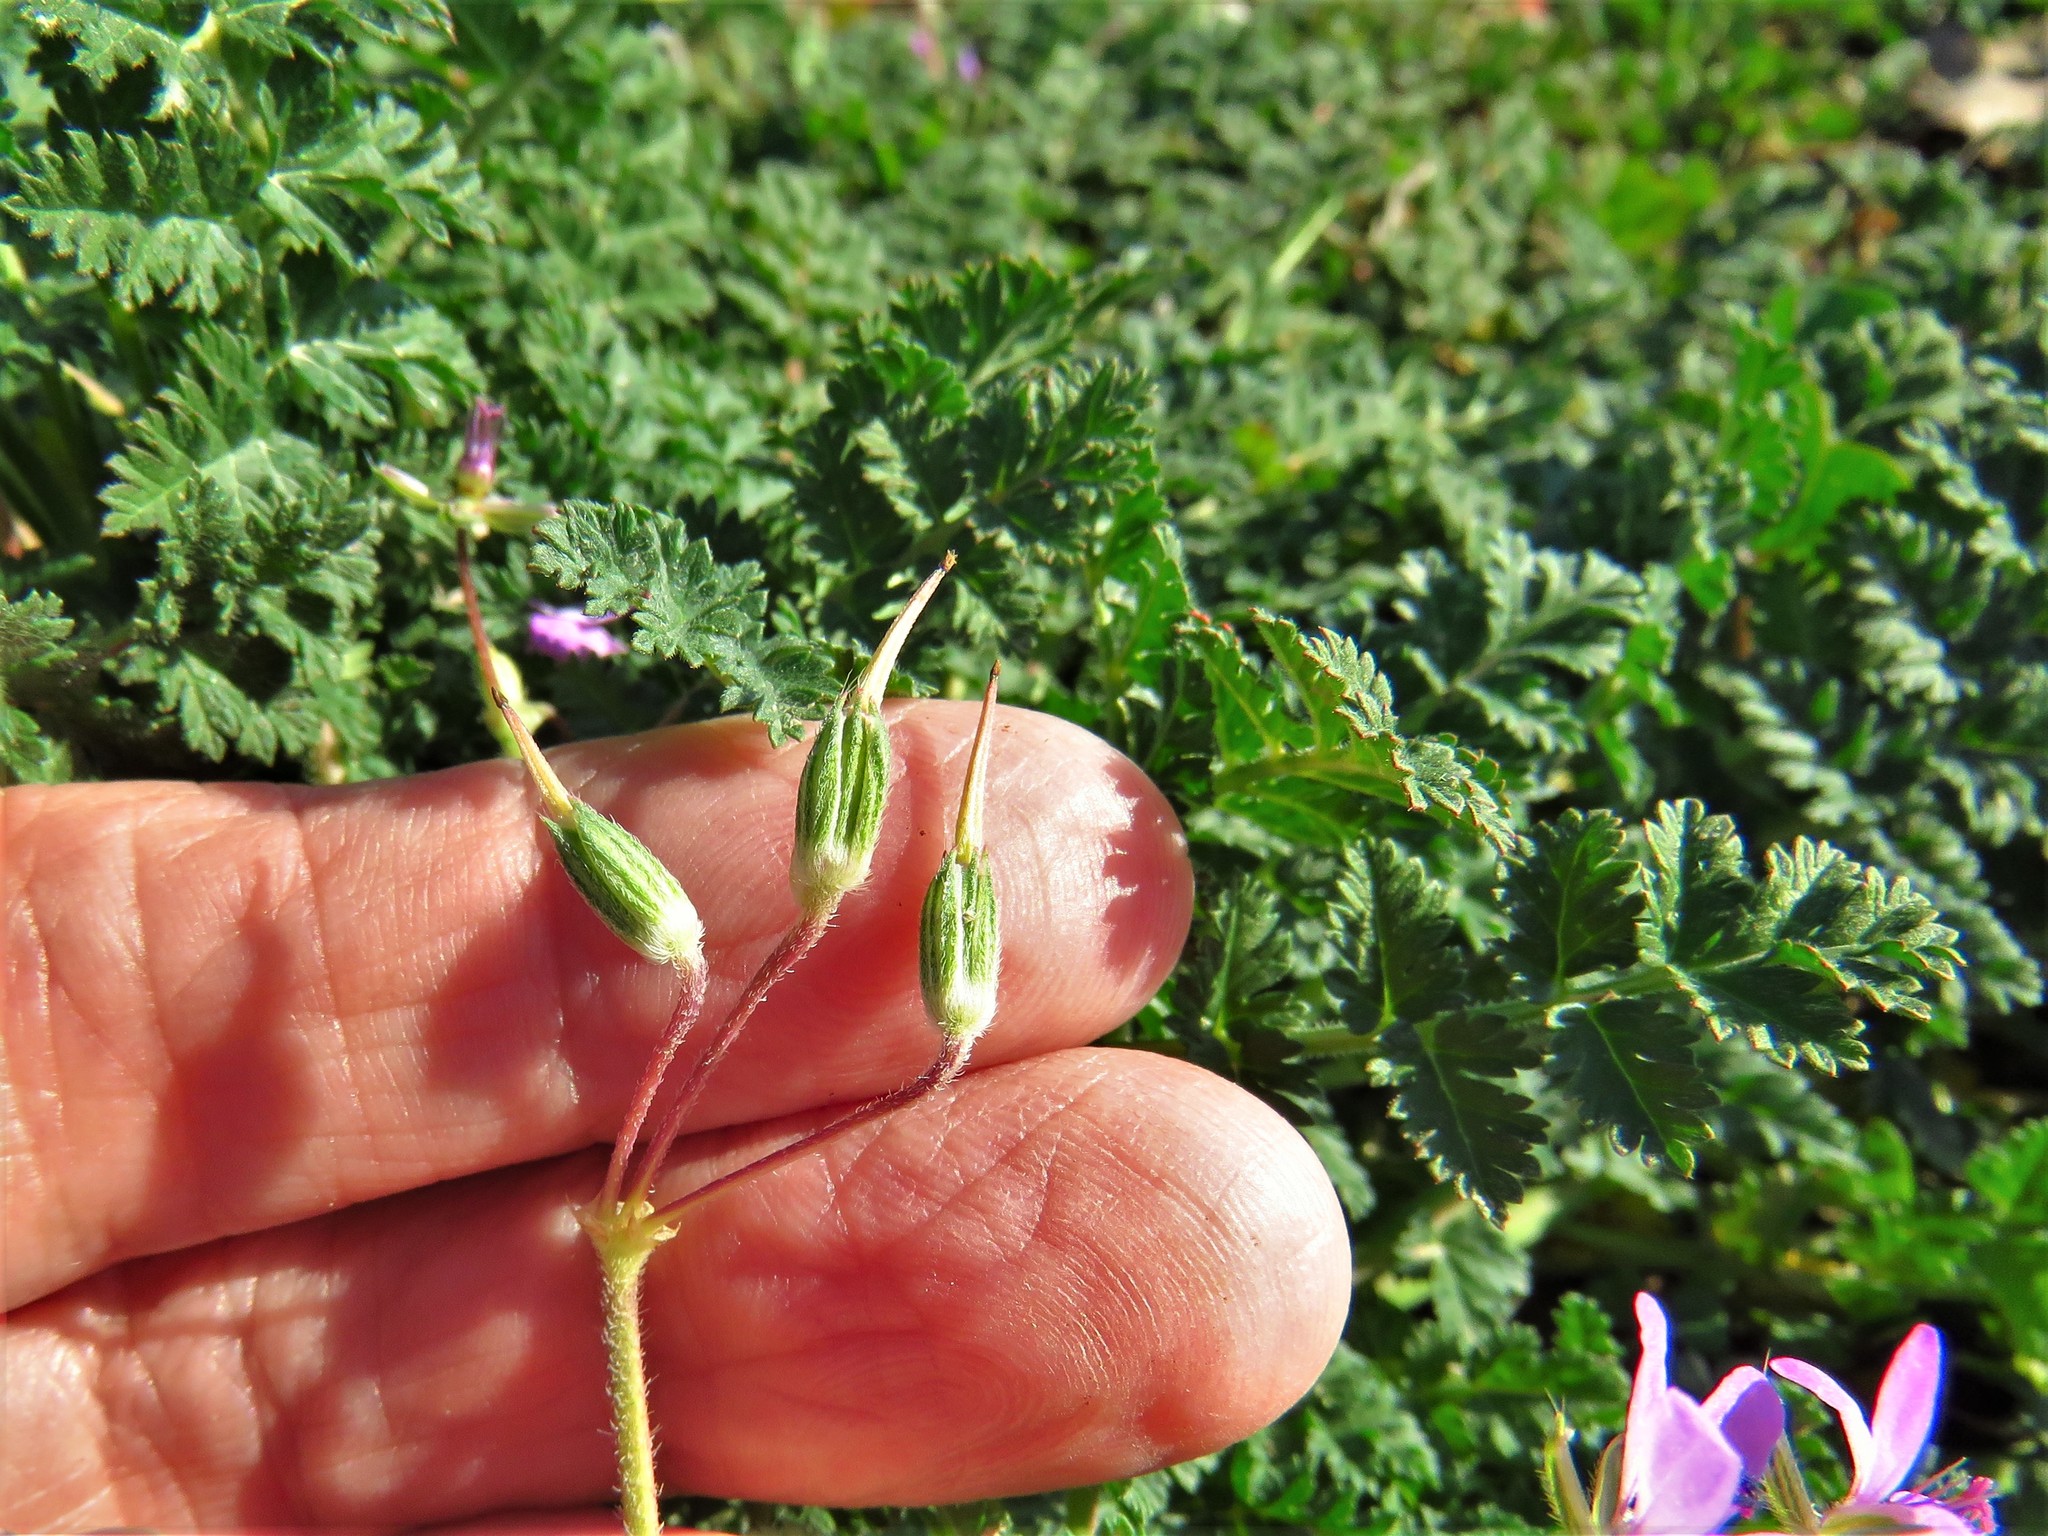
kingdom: Plantae
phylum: Tracheophyta
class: Magnoliopsida
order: Geraniales
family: Geraniaceae
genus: Erodium
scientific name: Erodium cicutarium
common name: Common stork's-bill
